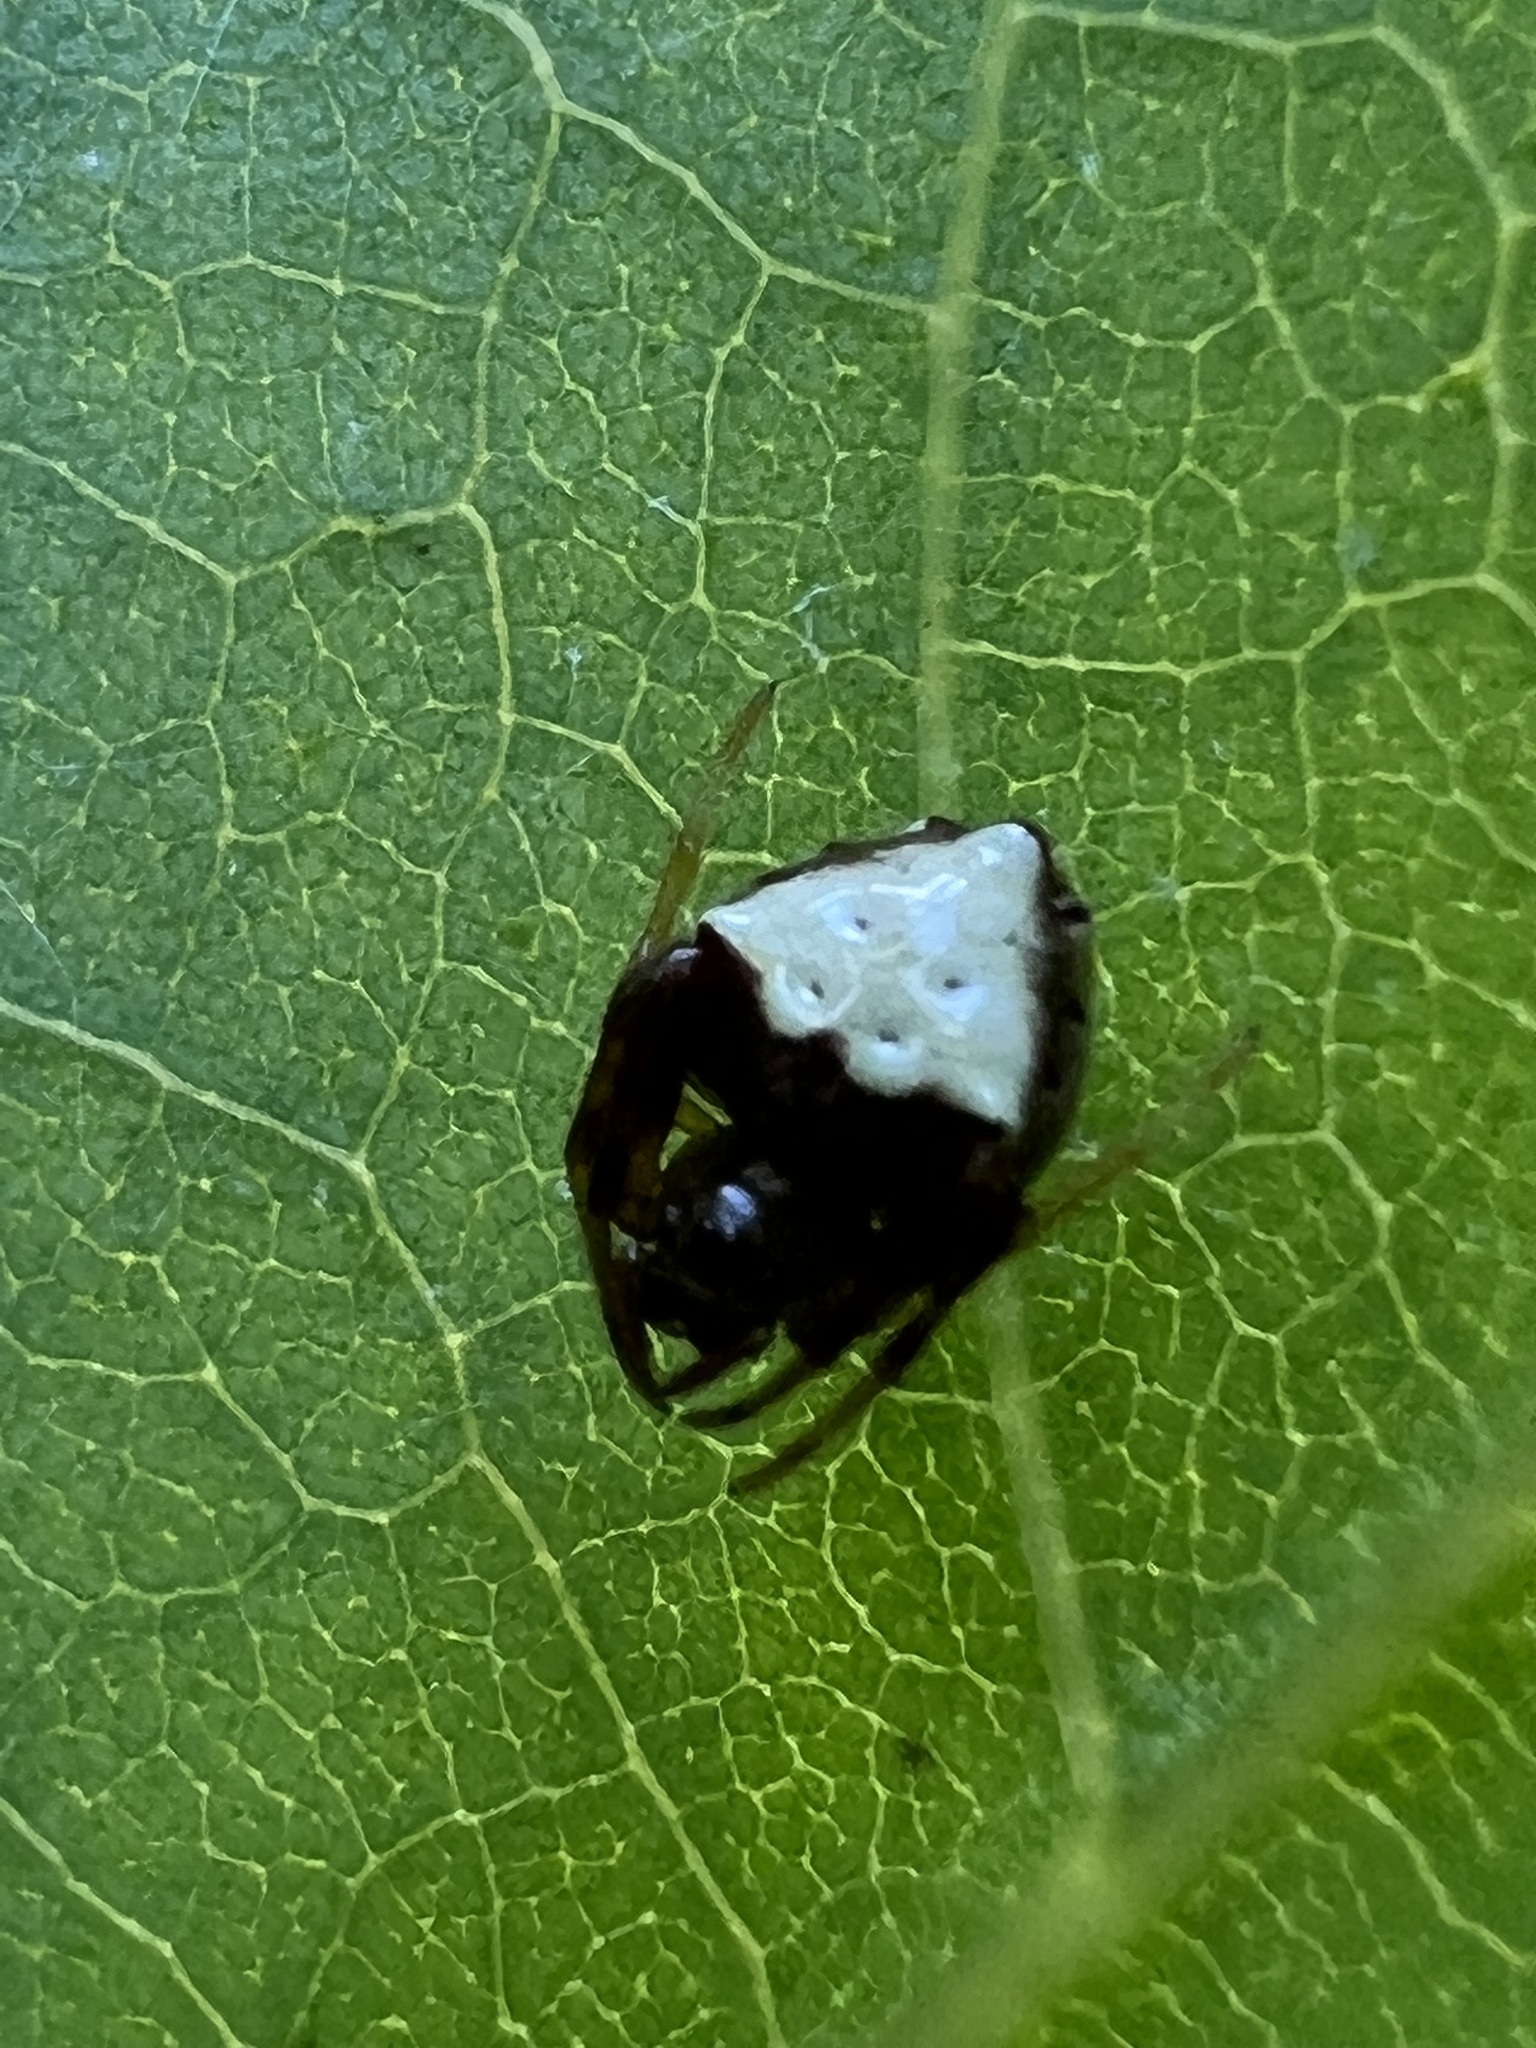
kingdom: Animalia
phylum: Arthropoda
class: Arachnida
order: Araneae
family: Araneidae
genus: Verrucosa
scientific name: Verrucosa arenata
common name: Orb weavers
